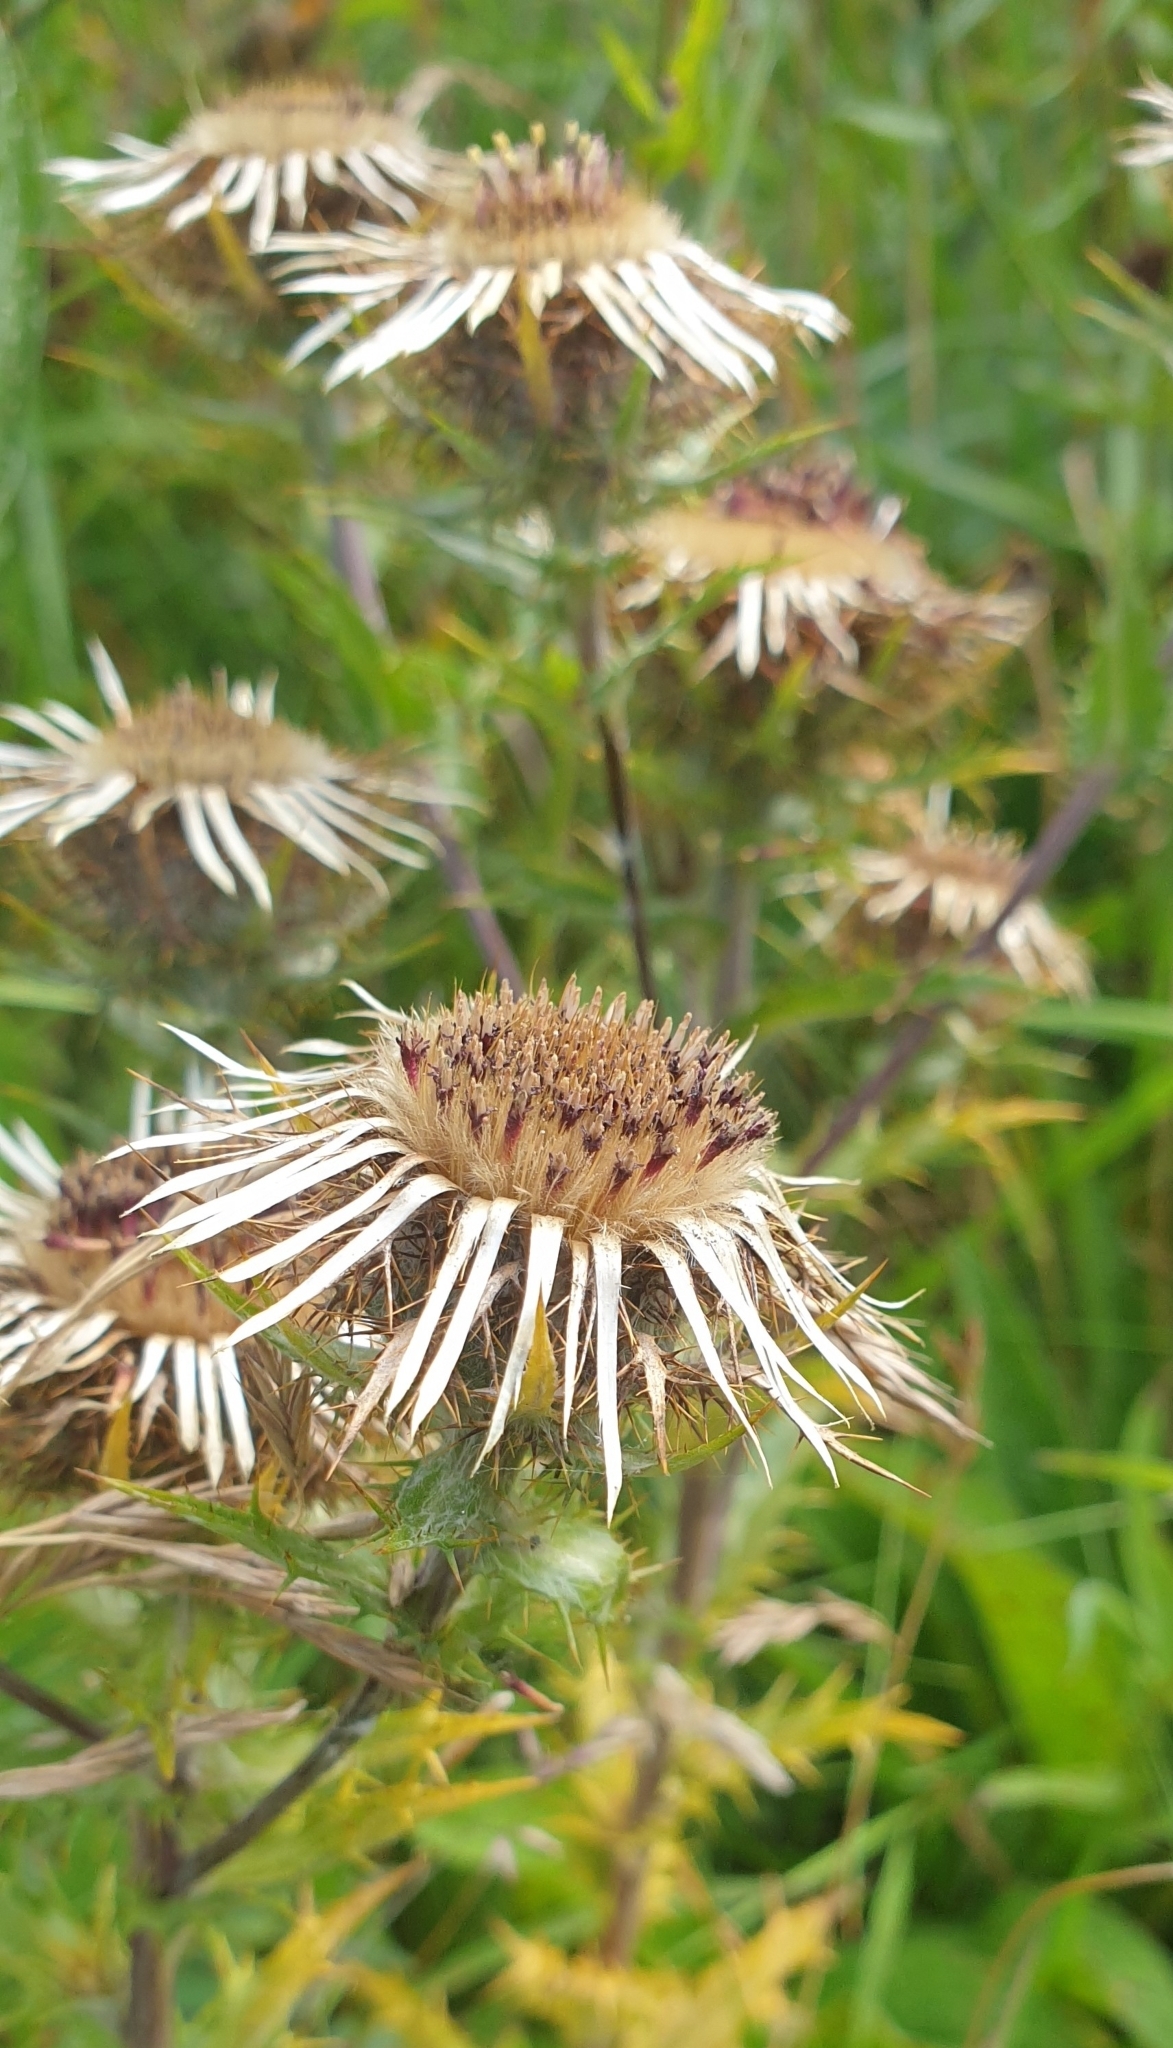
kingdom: Plantae
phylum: Tracheophyta
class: Magnoliopsida
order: Asterales
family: Asteraceae
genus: Carlina
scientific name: Carlina vulgaris
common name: Carline thistle
